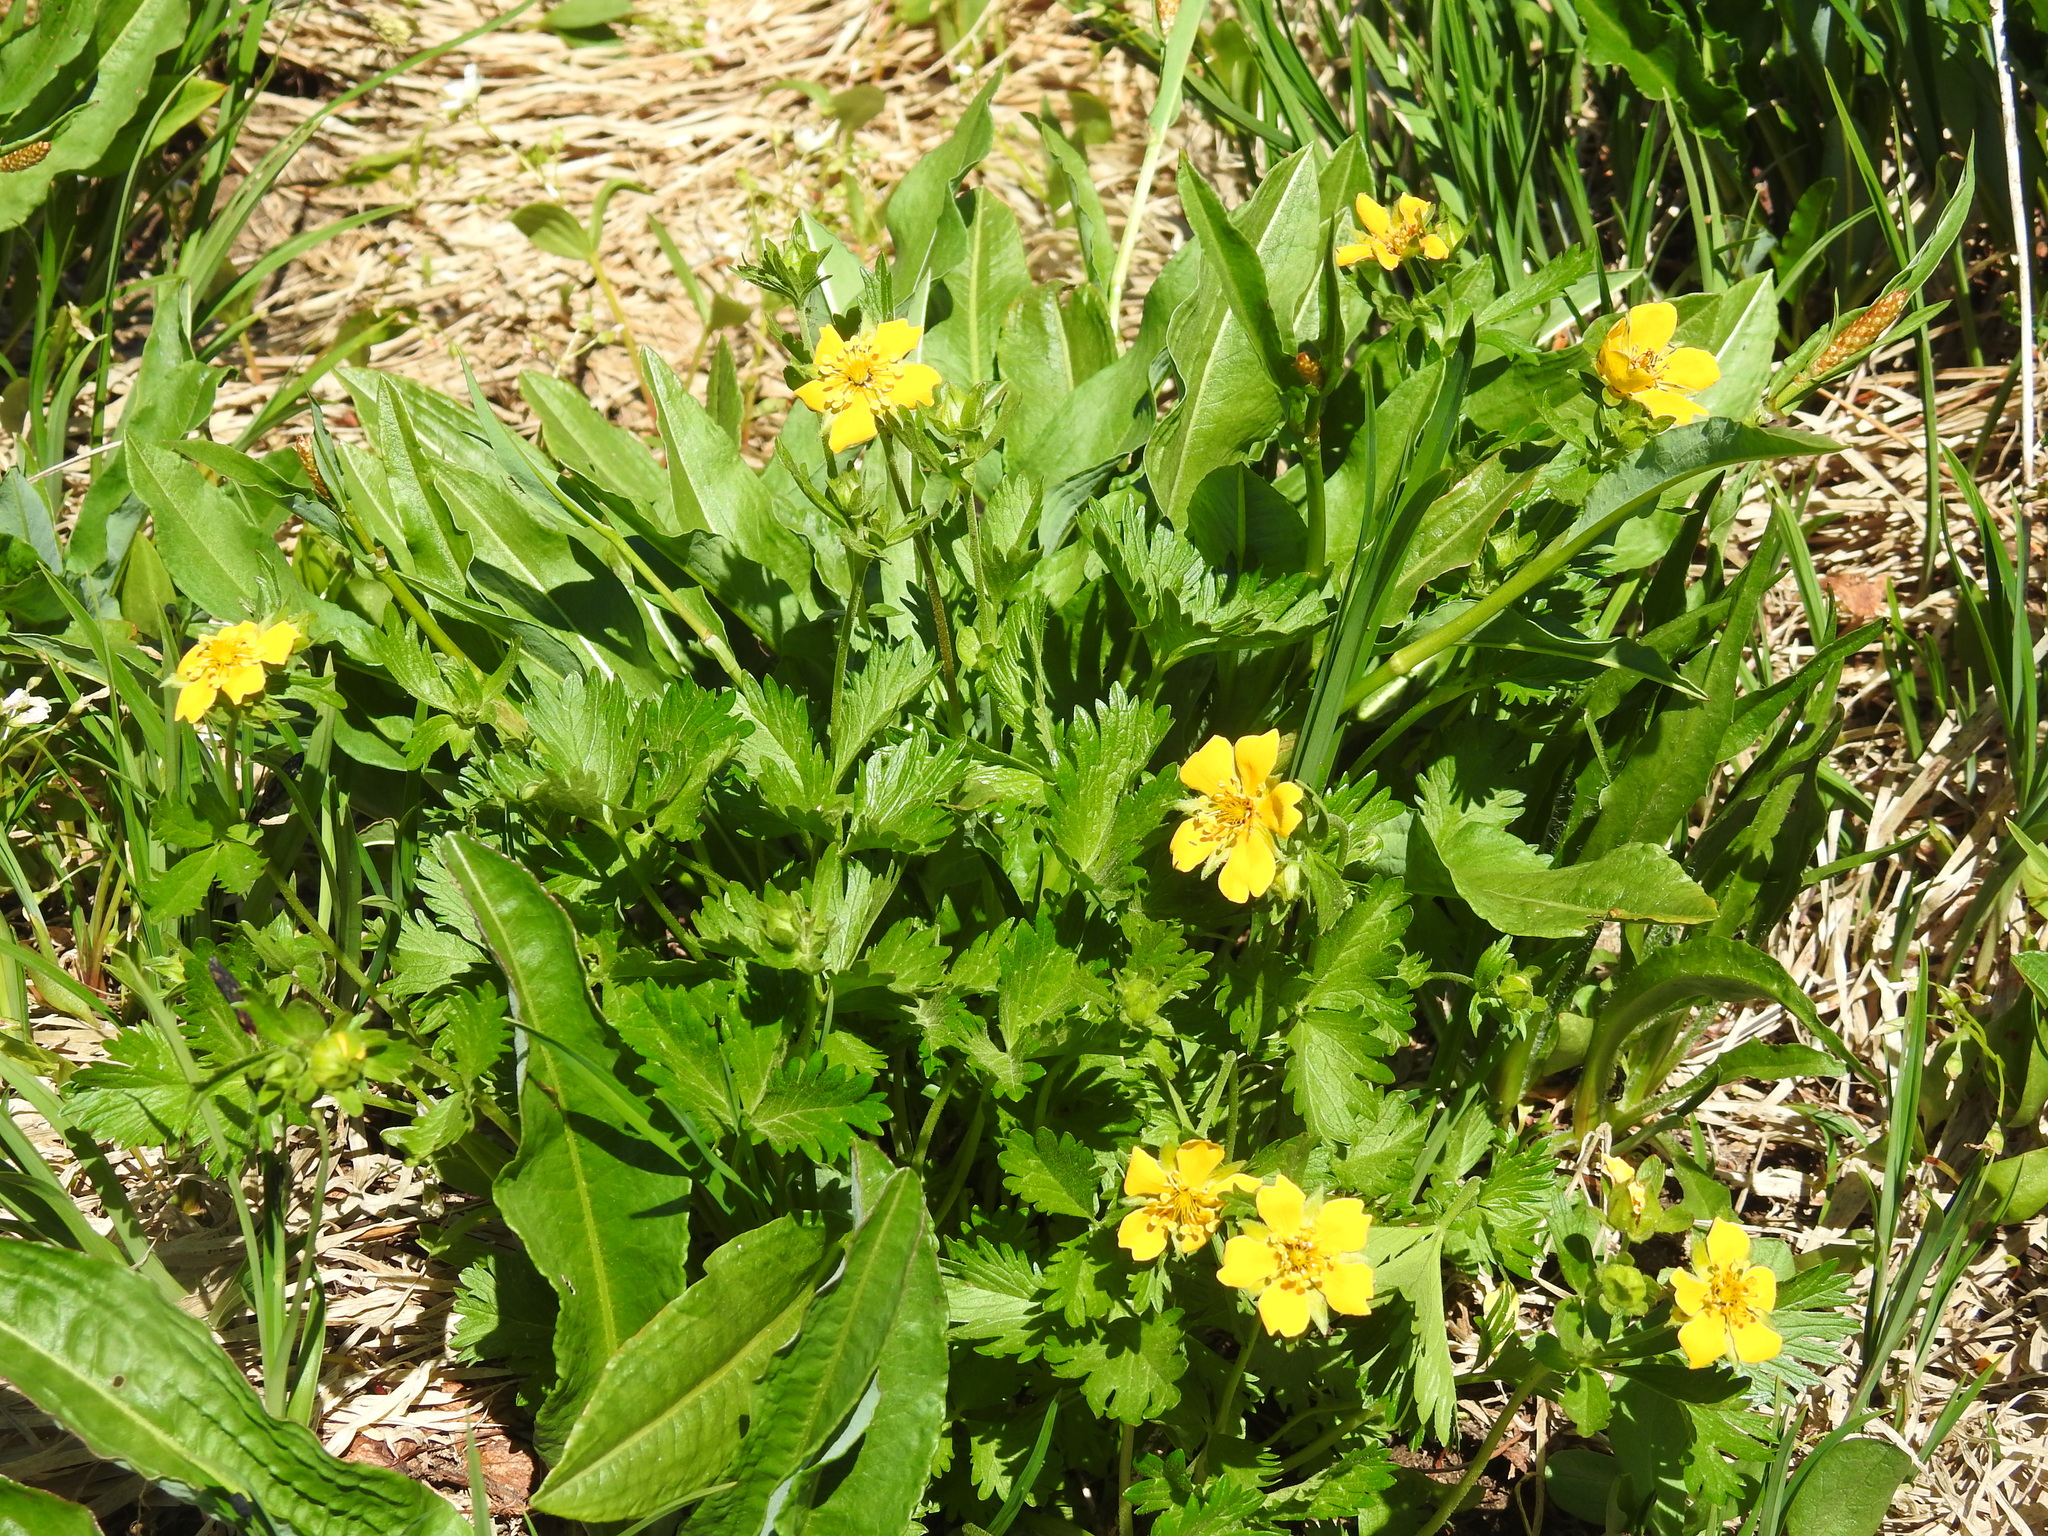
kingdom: Plantae
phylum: Tracheophyta
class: Magnoliopsida
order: Rosales
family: Rosaceae
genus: Potentilla
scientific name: Potentilla flabellifolia
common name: Mount rainier cinquefoil
